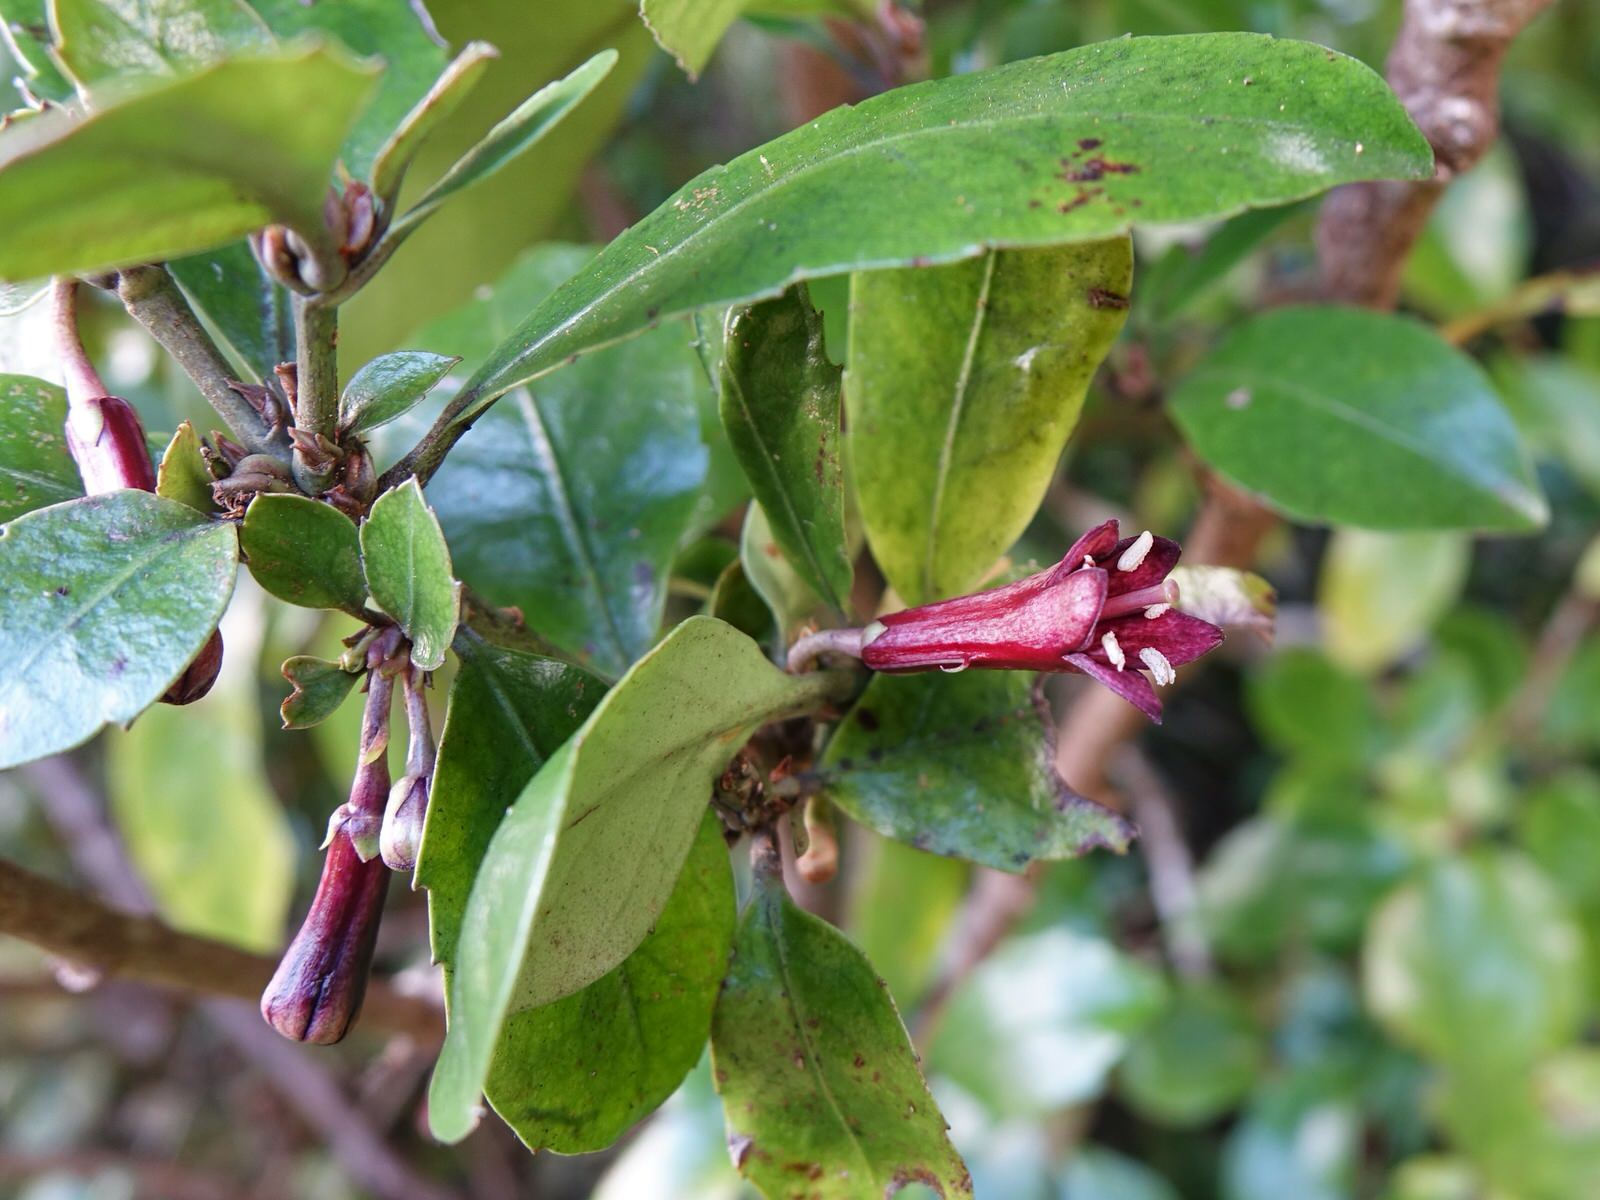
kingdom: Plantae
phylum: Tracheophyta
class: Magnoliopsida
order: Asterales
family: Alseuosmiaceae
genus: Alseuosmia
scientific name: Alseuosmia macrophylla
